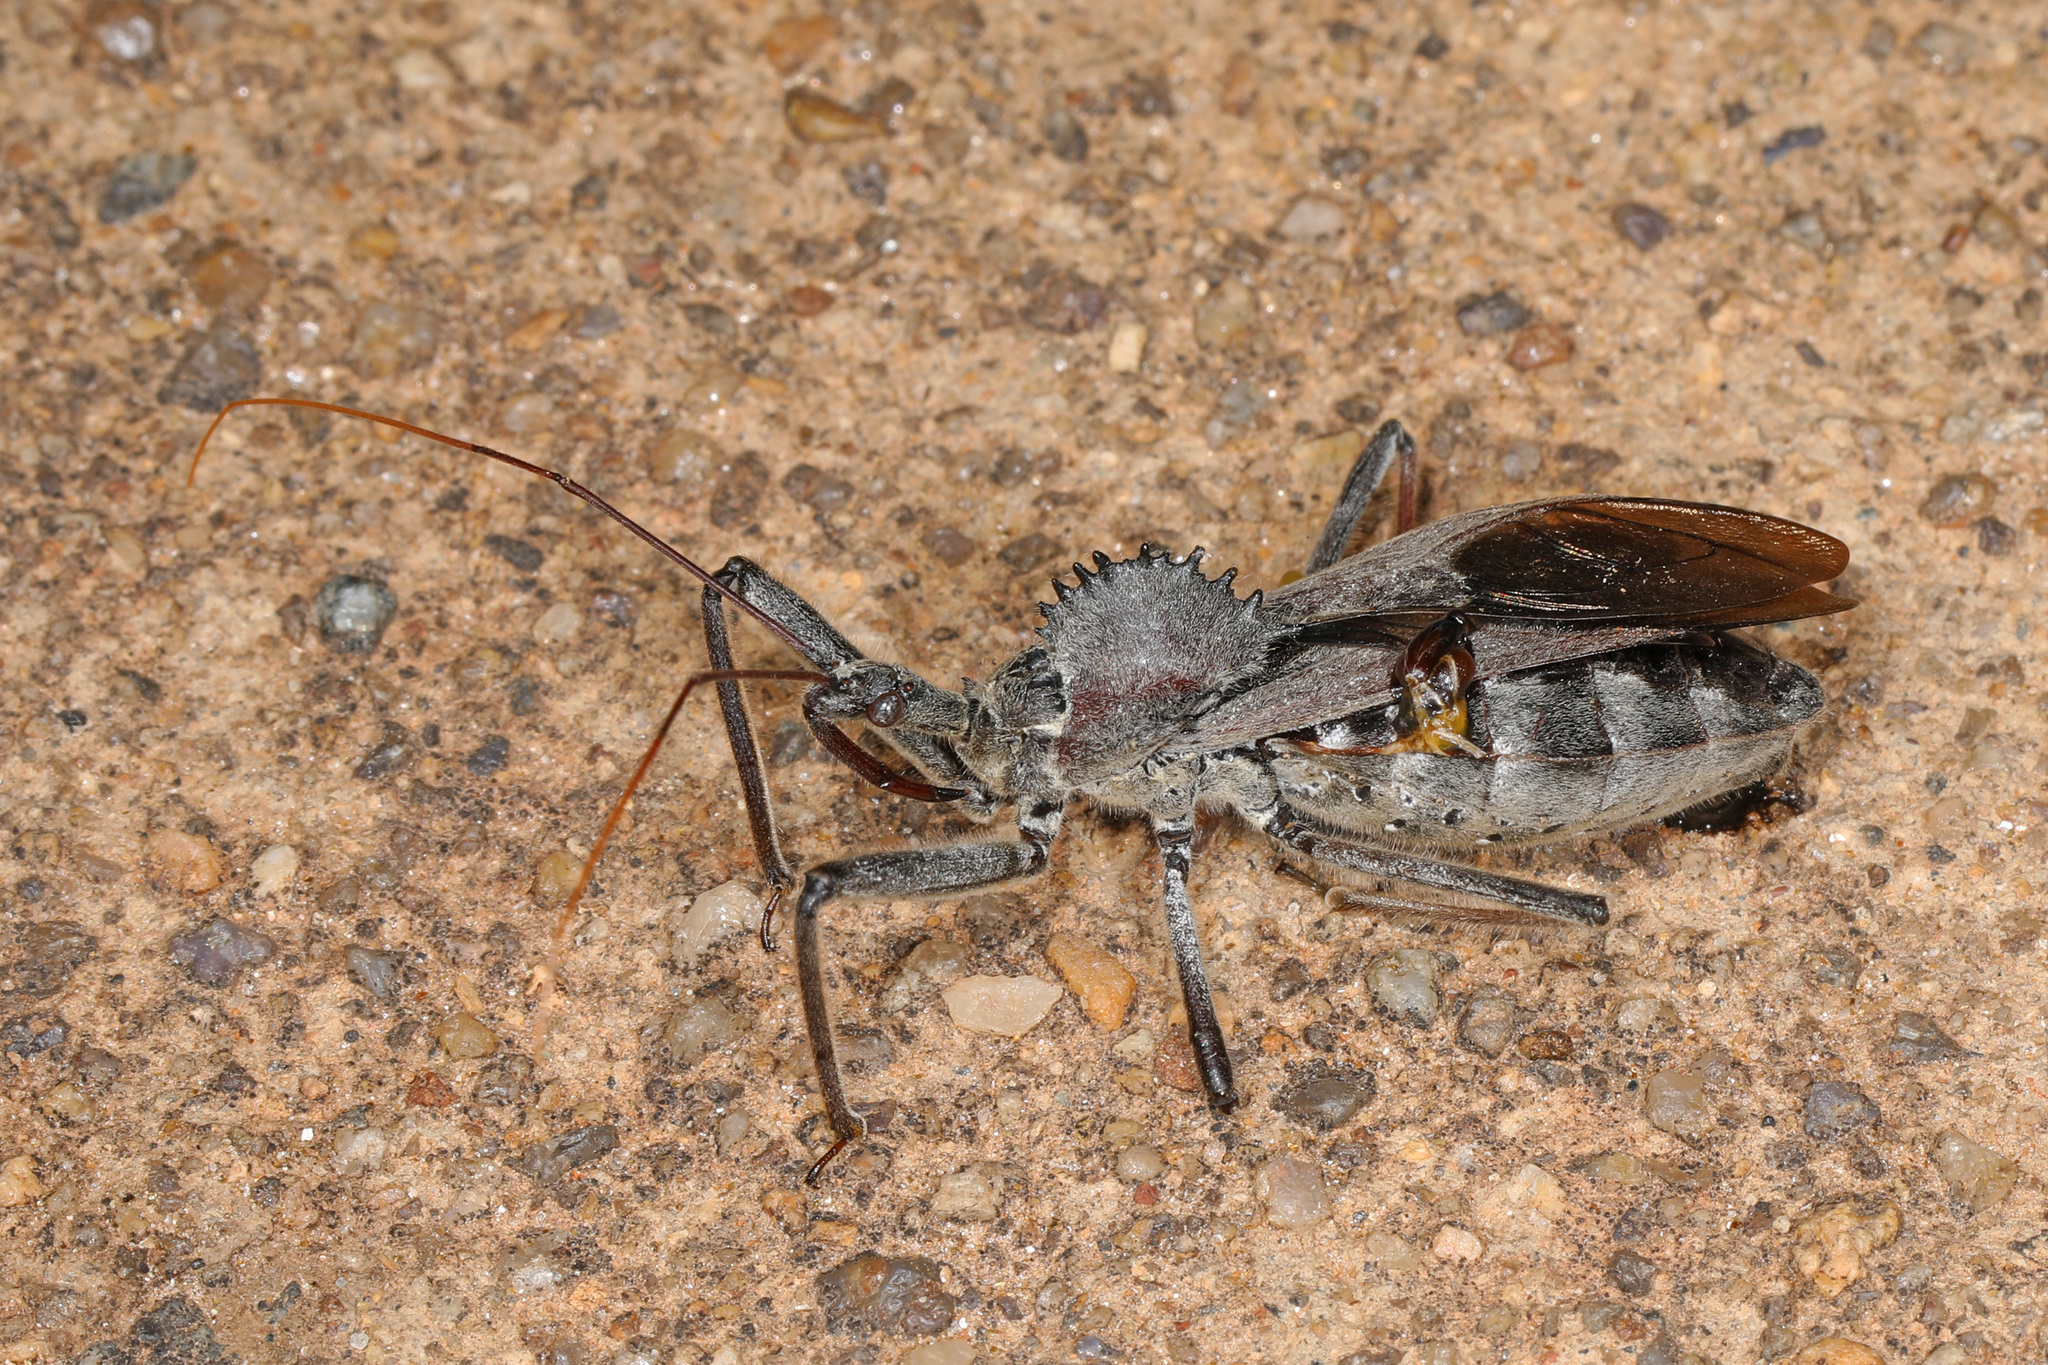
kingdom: Animalia
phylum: Arthropoda
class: Insecta
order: Hemiptera
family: Reduviidae
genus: Arilus
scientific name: Arilus cristatus
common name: North american wheel bug
